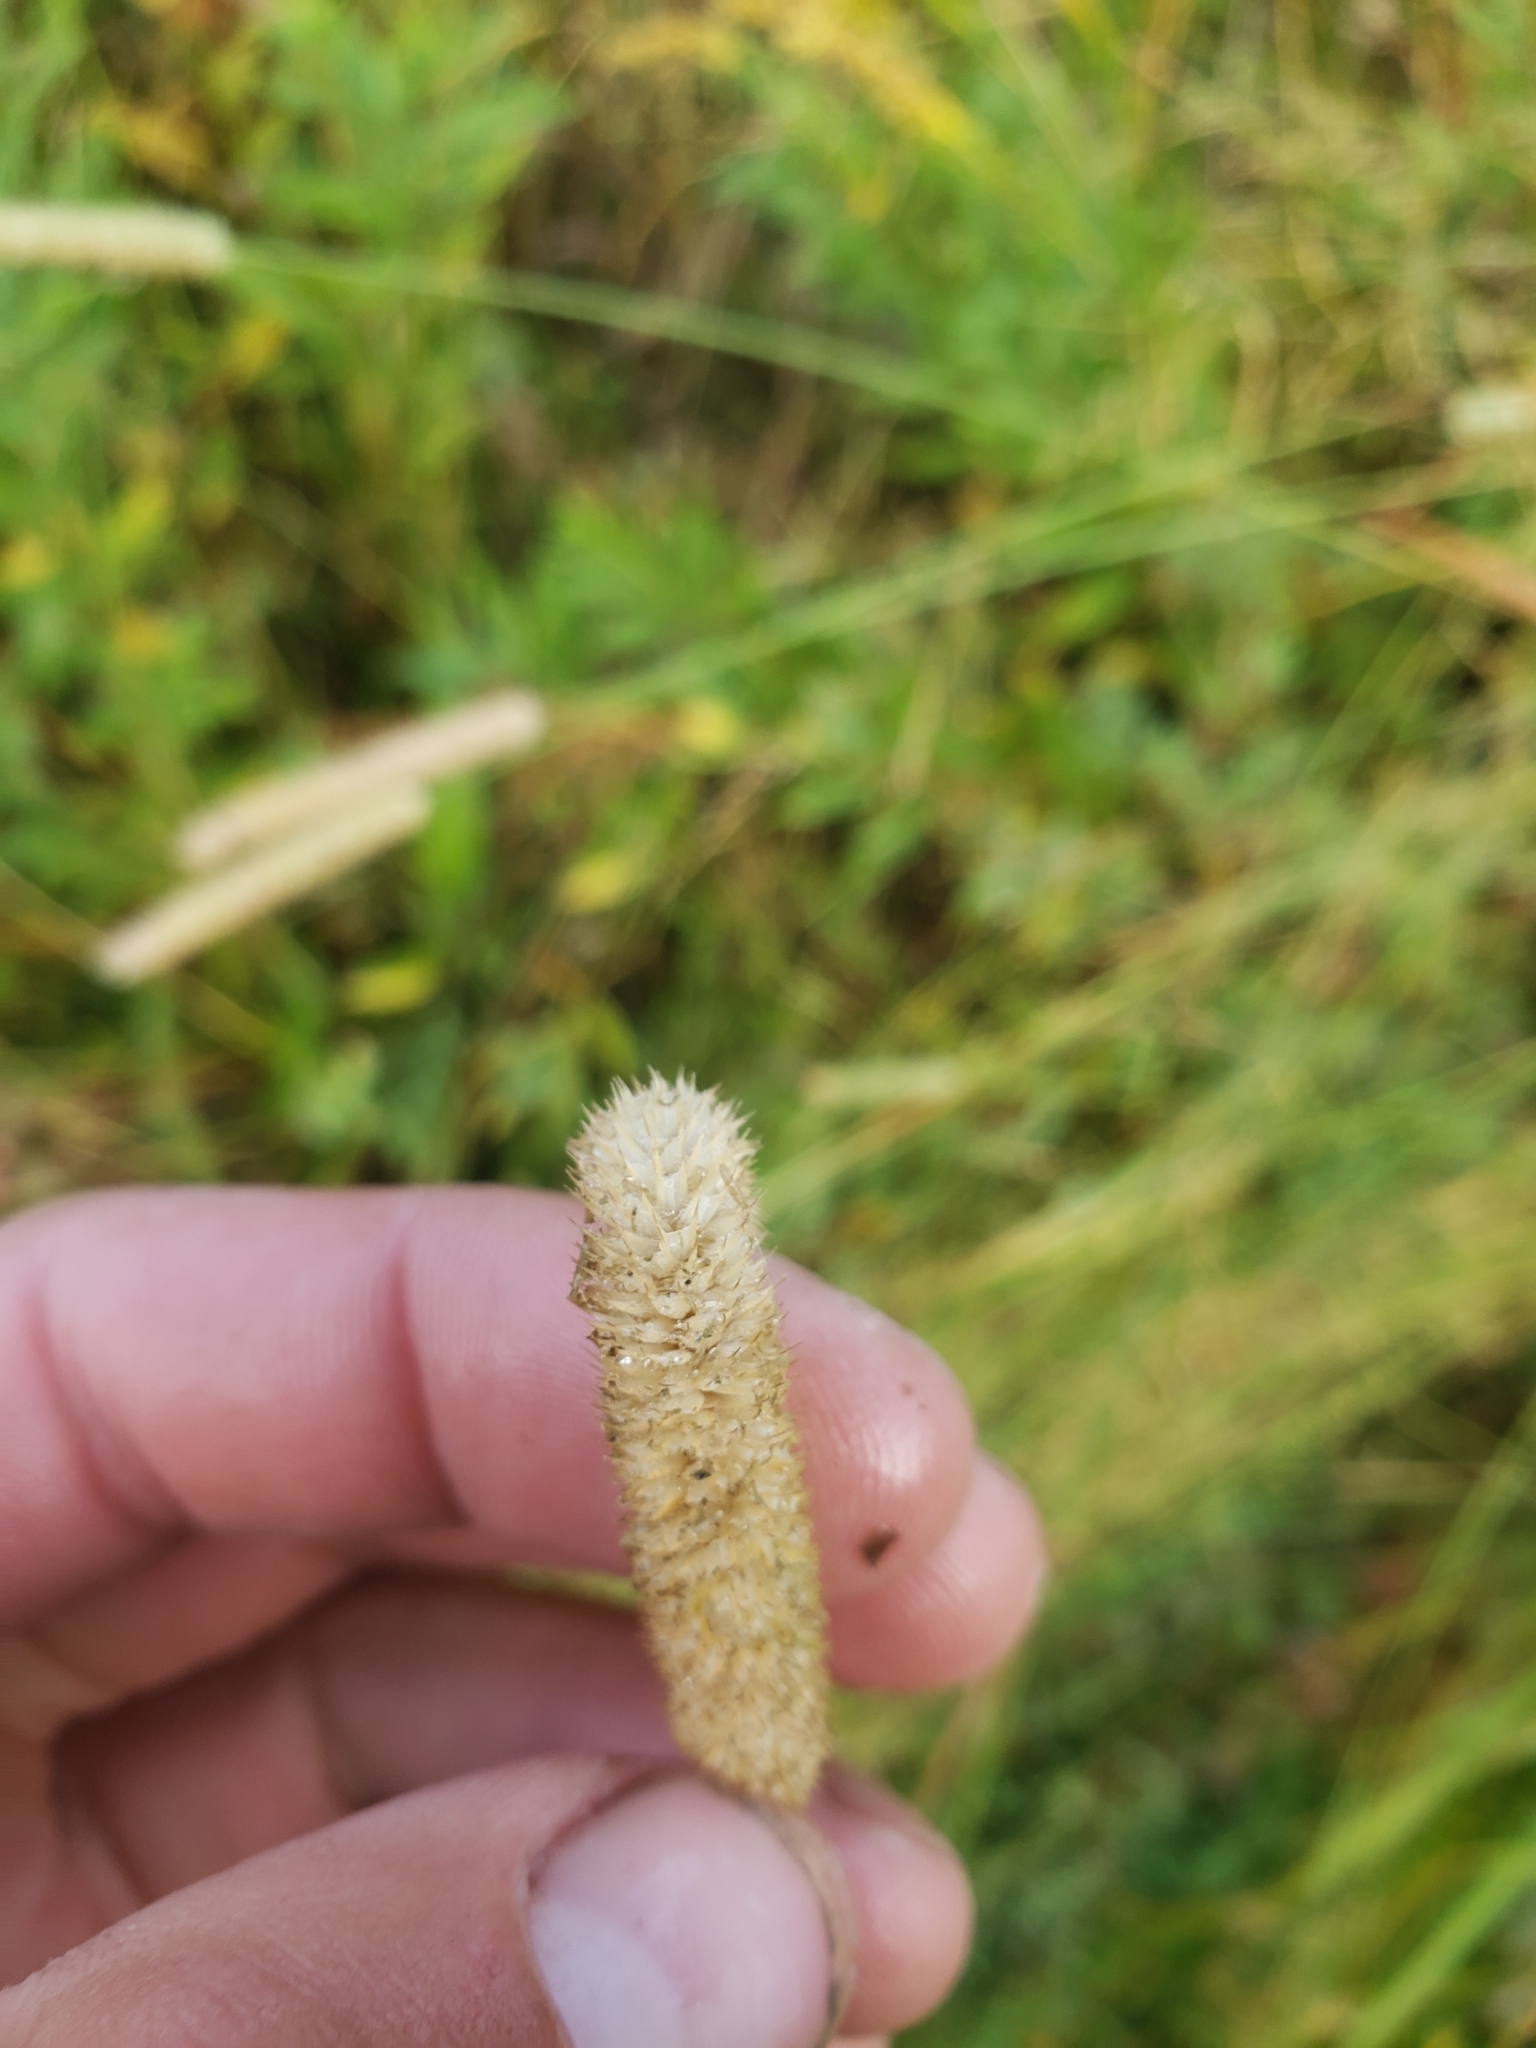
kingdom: Plantae
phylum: Tracheophyta
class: Liliopsida
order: Poales
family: Poaceae
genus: Phleum
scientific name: Phleum pratense
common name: Timothy grass
